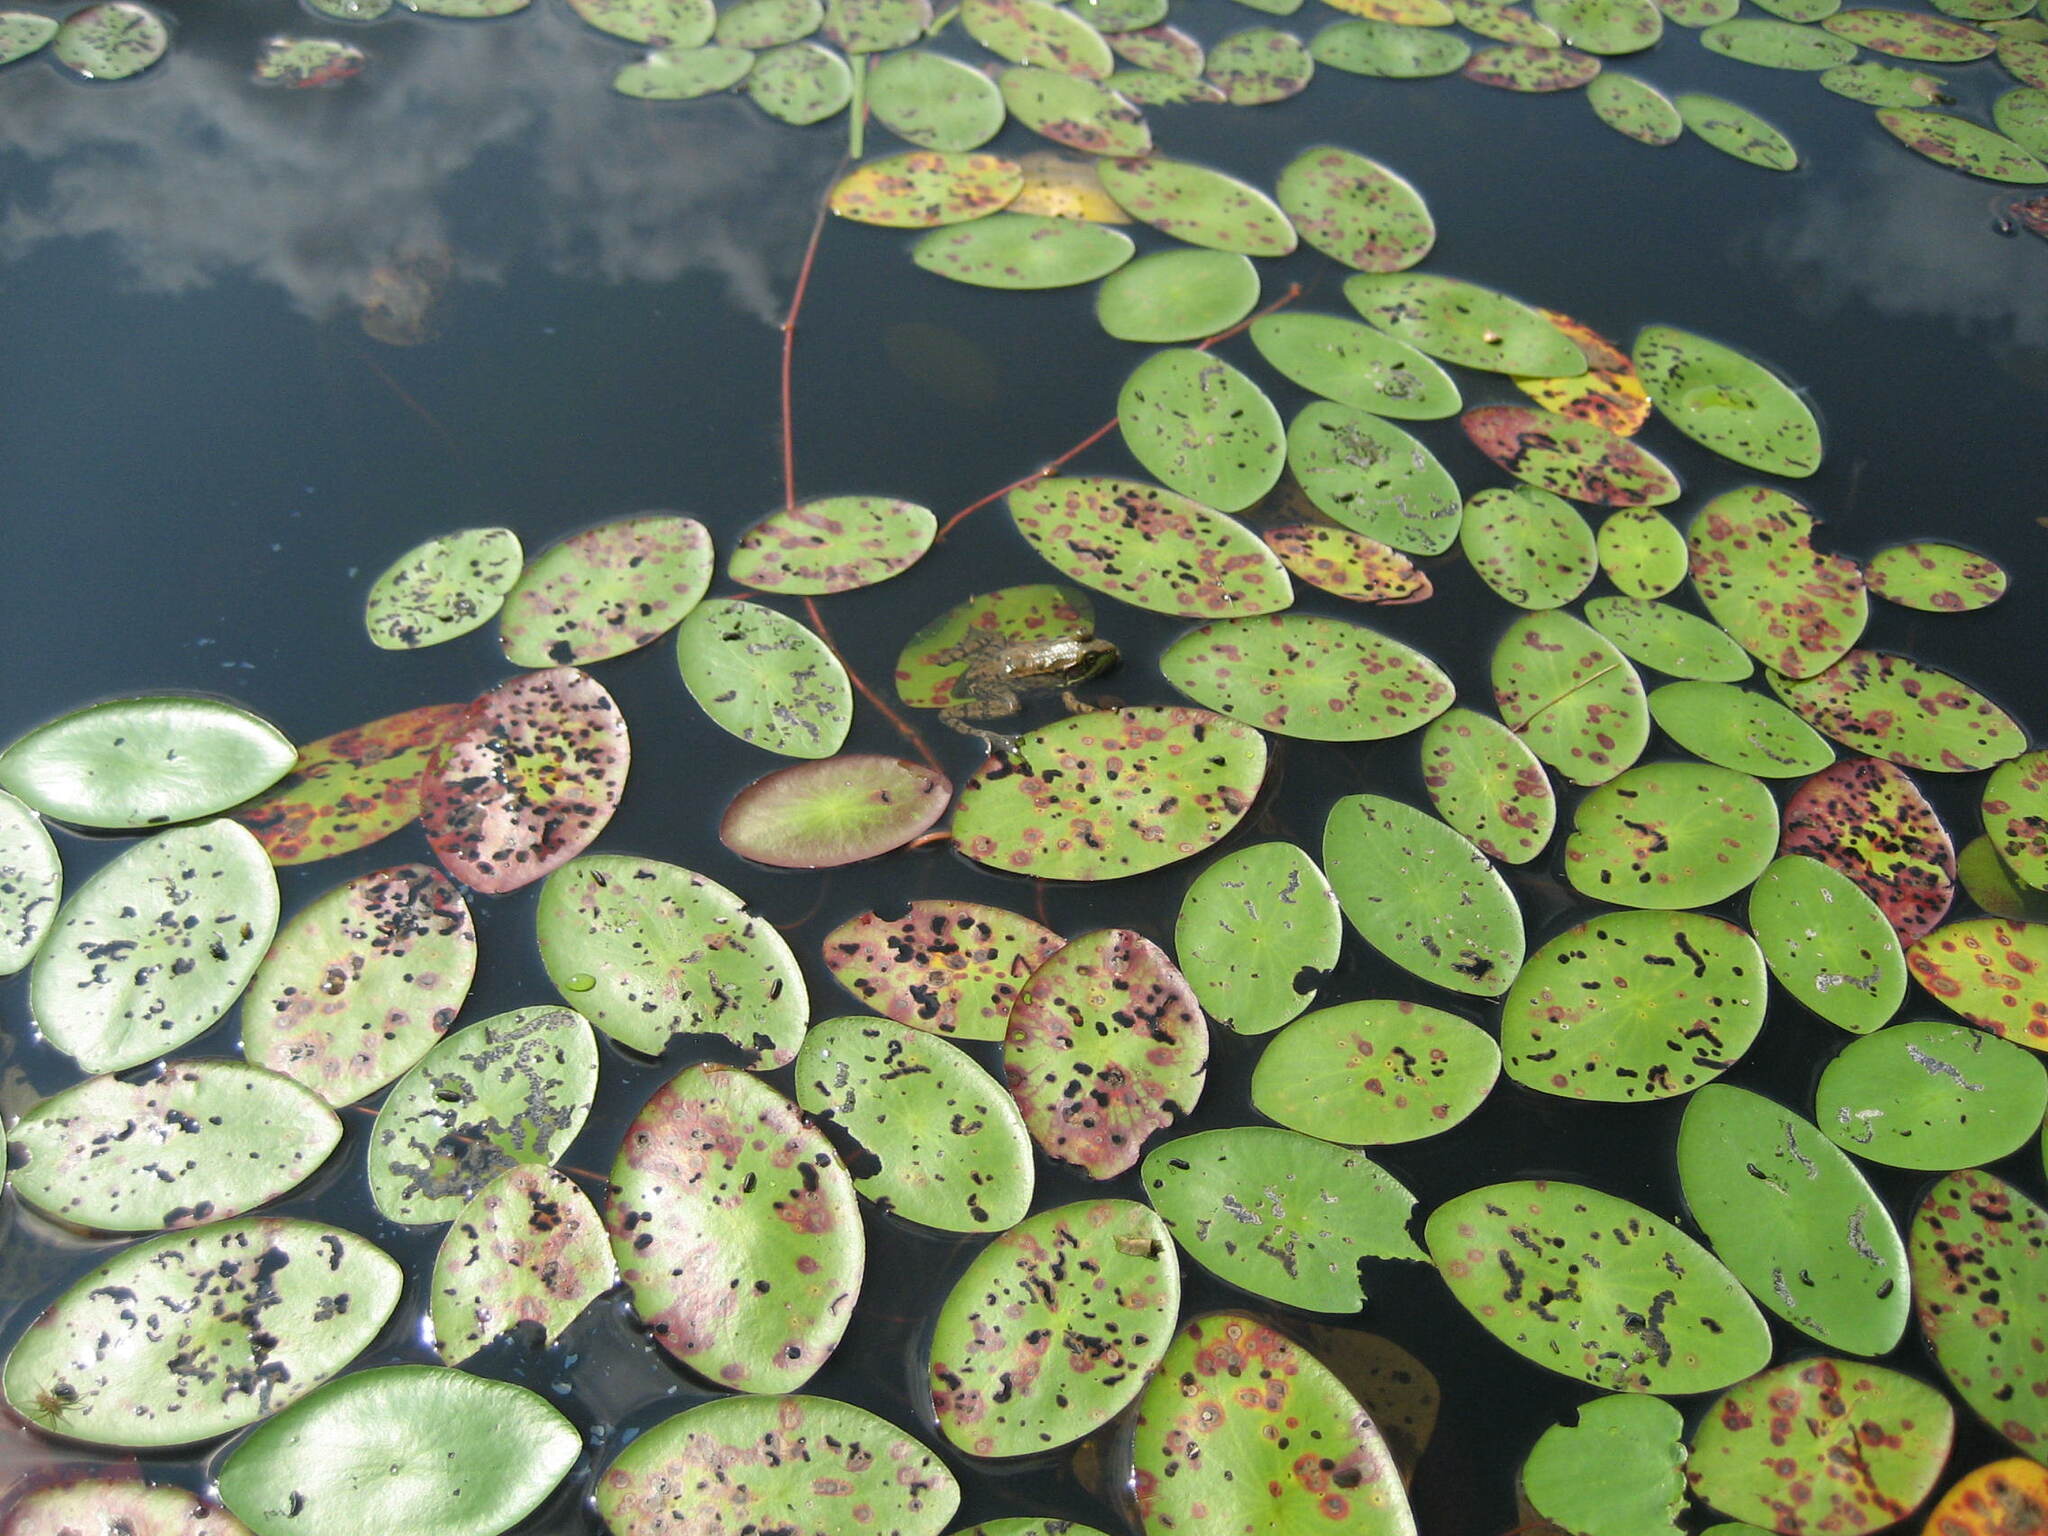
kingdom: Plantae
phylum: Tracheophyta
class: Magnoliopsida
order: Nymphaeales
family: Cabombaceae
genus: Brasenia
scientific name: Brasenia schreberi
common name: Water-shield
